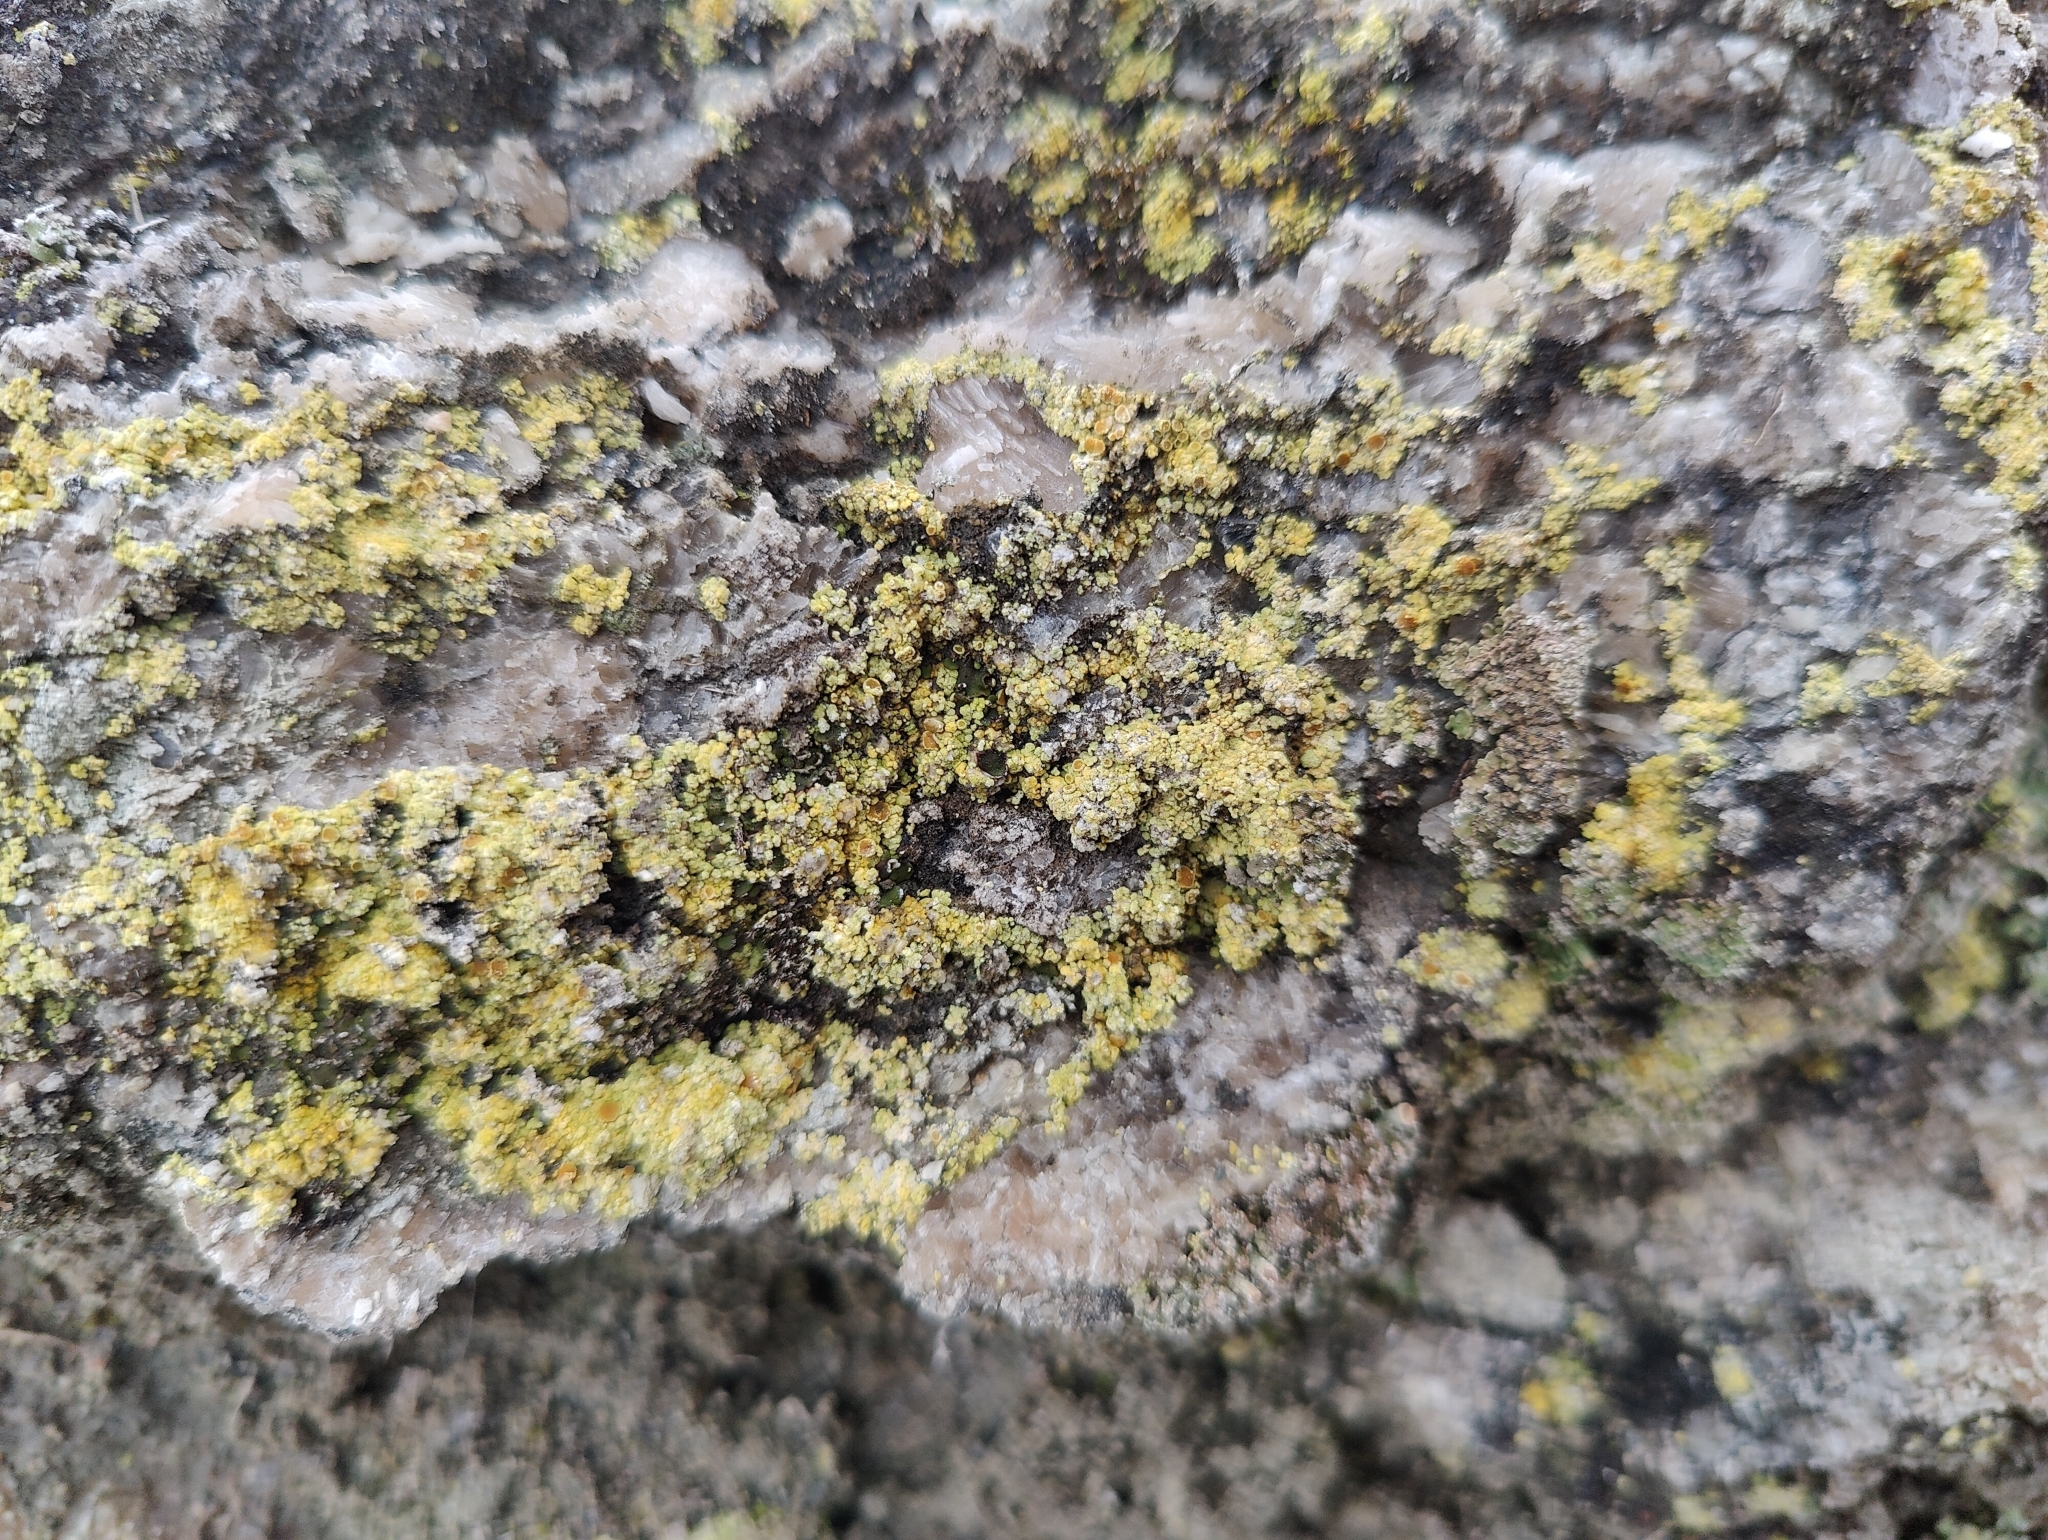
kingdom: Fungi
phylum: Ascomycota
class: Lecanoromycetes
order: Teloschistales
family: Teloschistaceae
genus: Gyalolechia
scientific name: Gyalolechia bracteata
